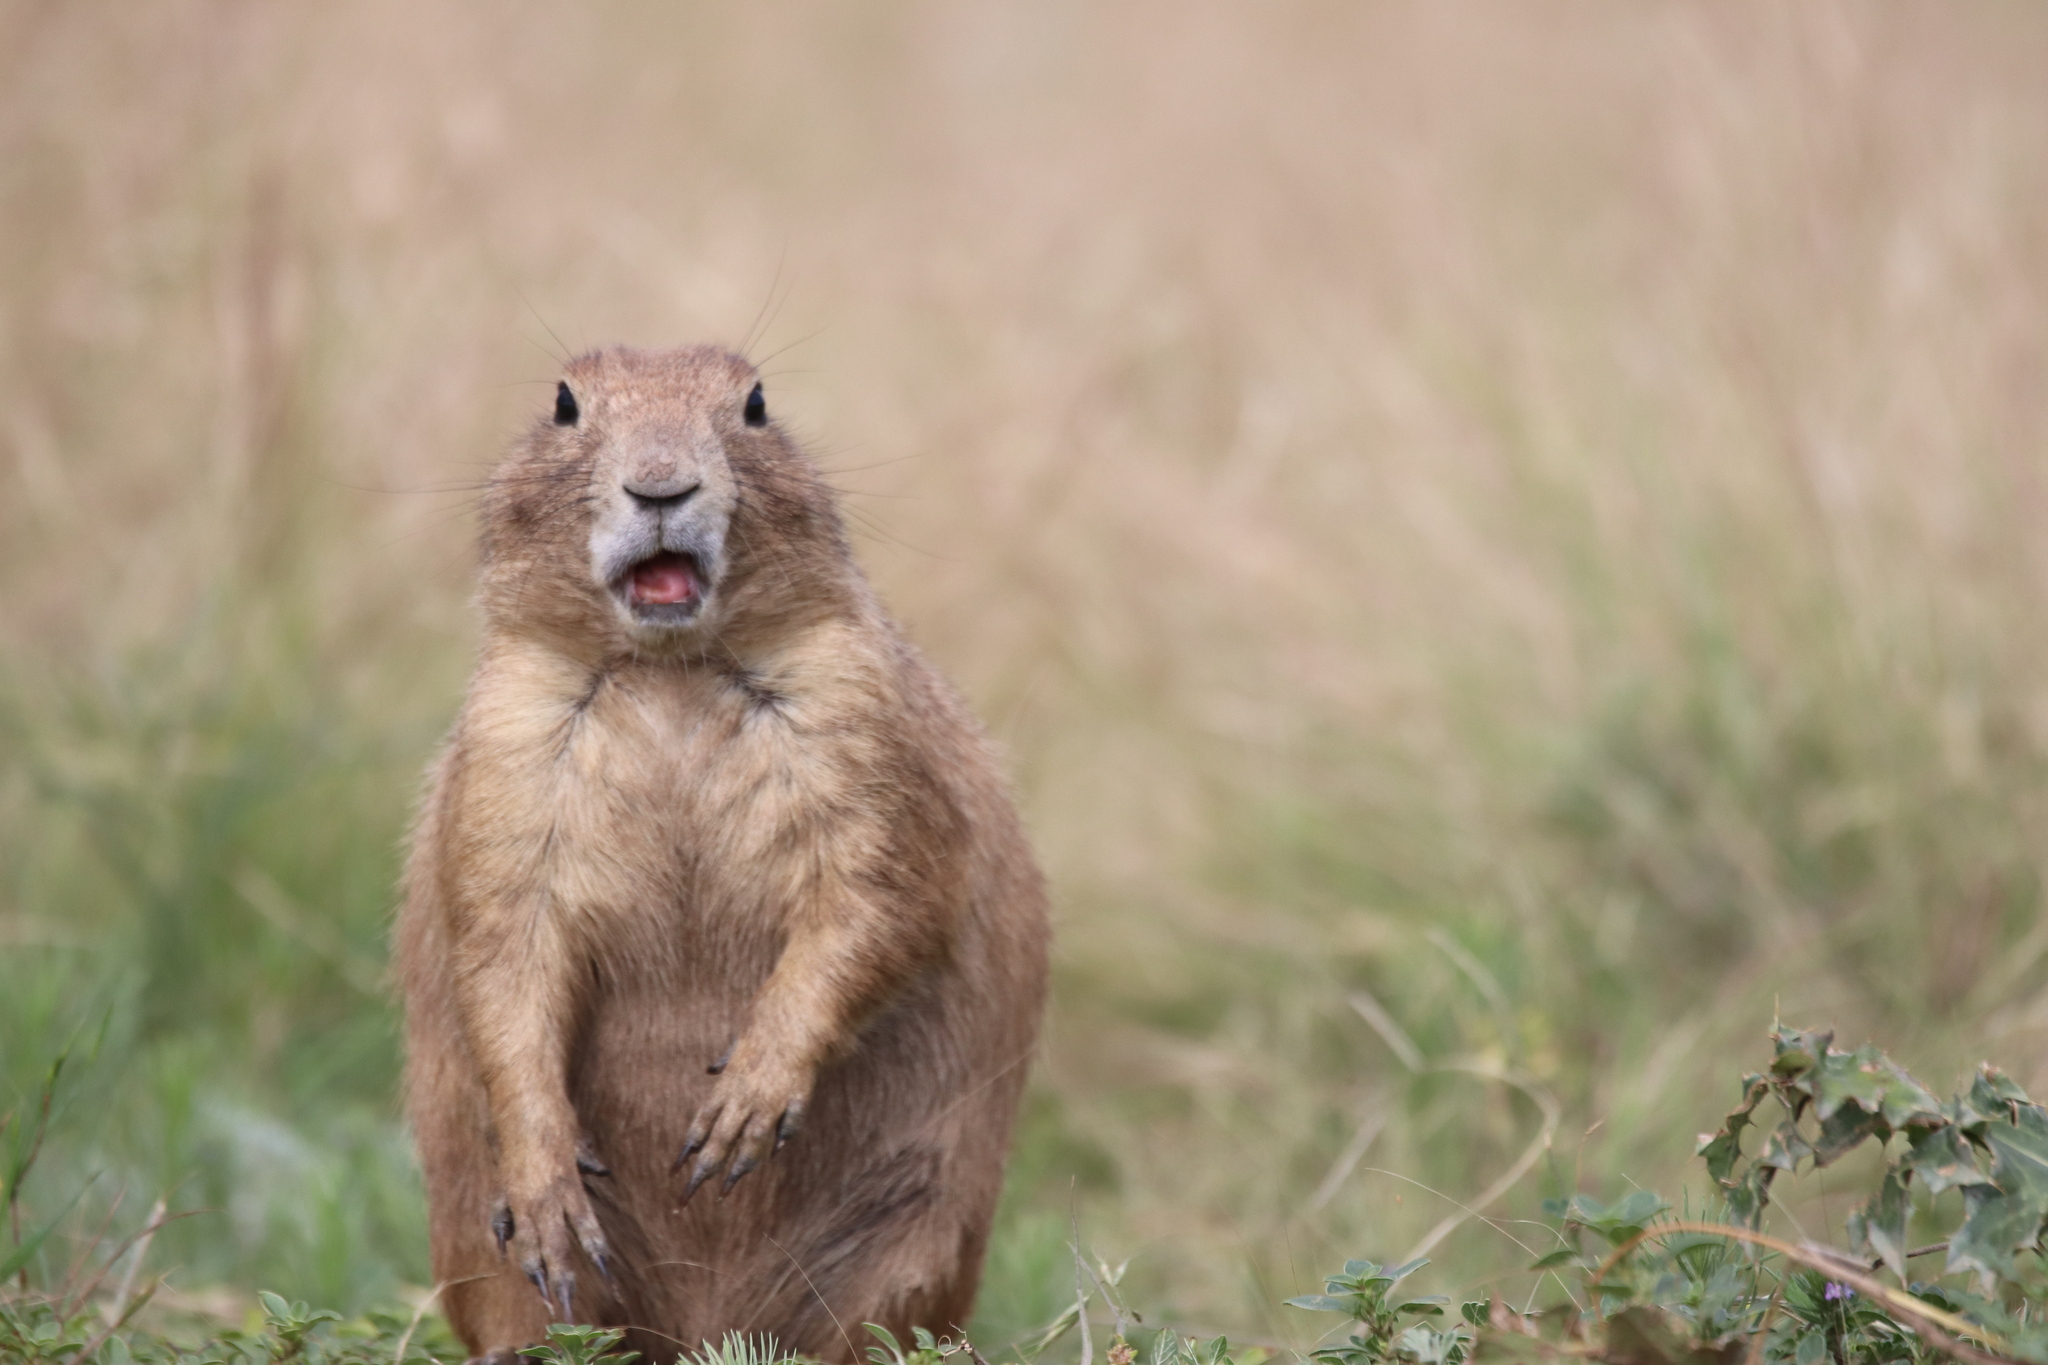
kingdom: Animalia
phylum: Chordata
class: Mammalia
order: Rodentia
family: Sciuridae
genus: Cynomys
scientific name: Cynomys ludovicianus
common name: Black-tailed prairie dog
